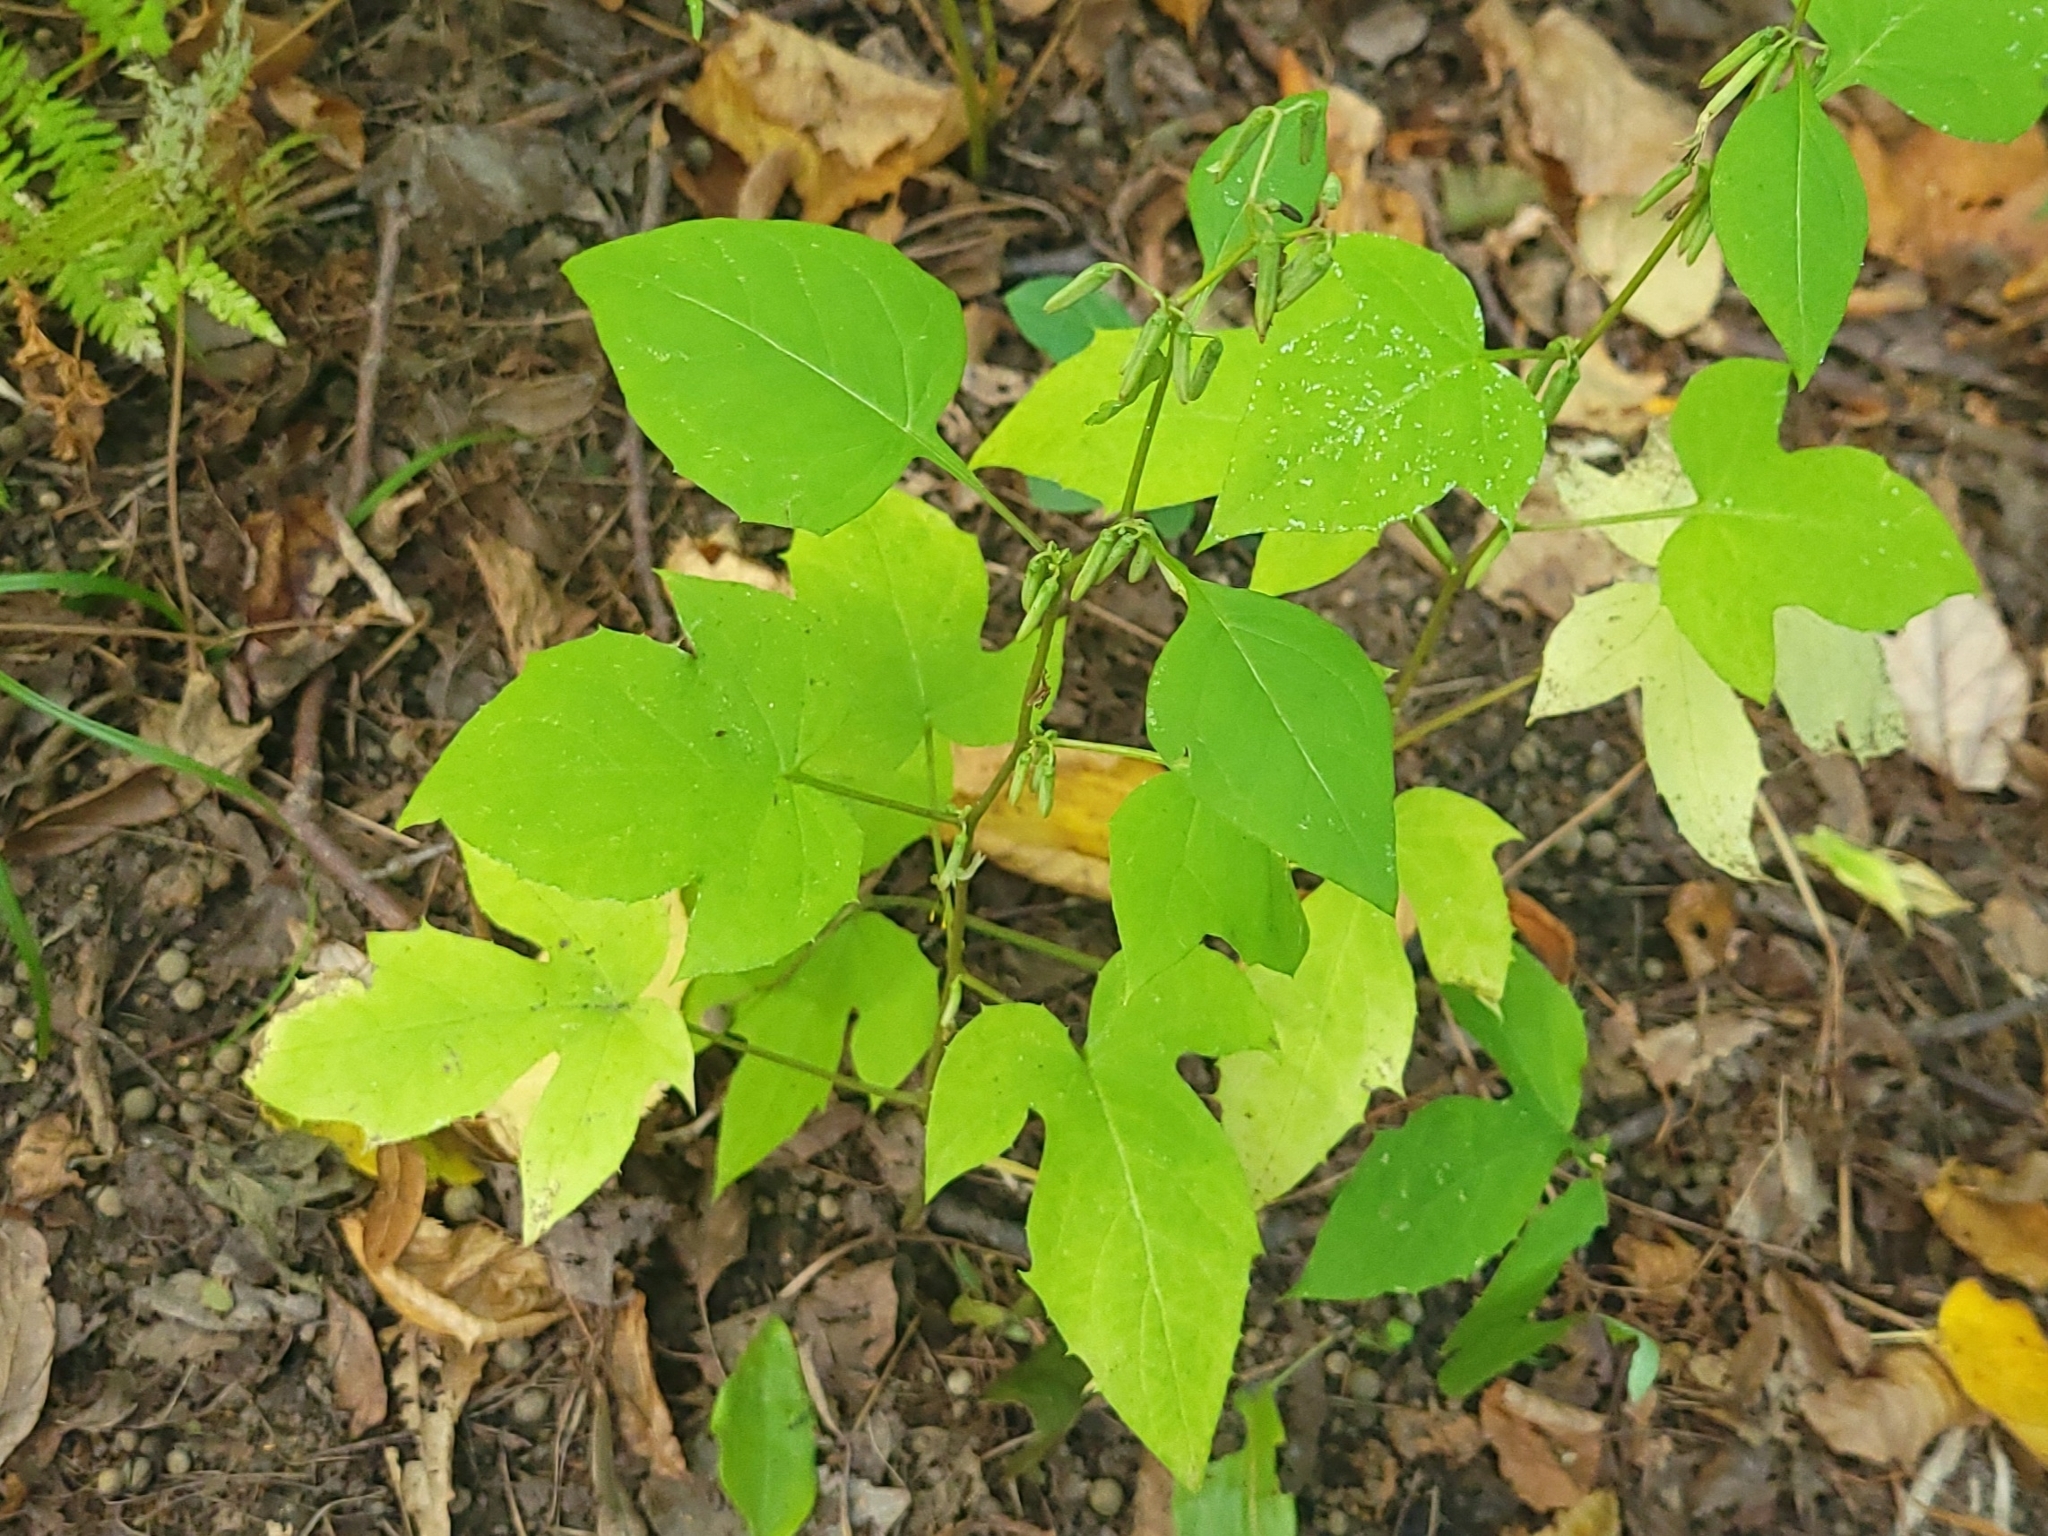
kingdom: Plantae
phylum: Tracheophyta
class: Magnoliopsida
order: Asterales
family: Asteraceae
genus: Nabalus
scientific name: Nabalus altissima
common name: Tall rattlesnakeroot
